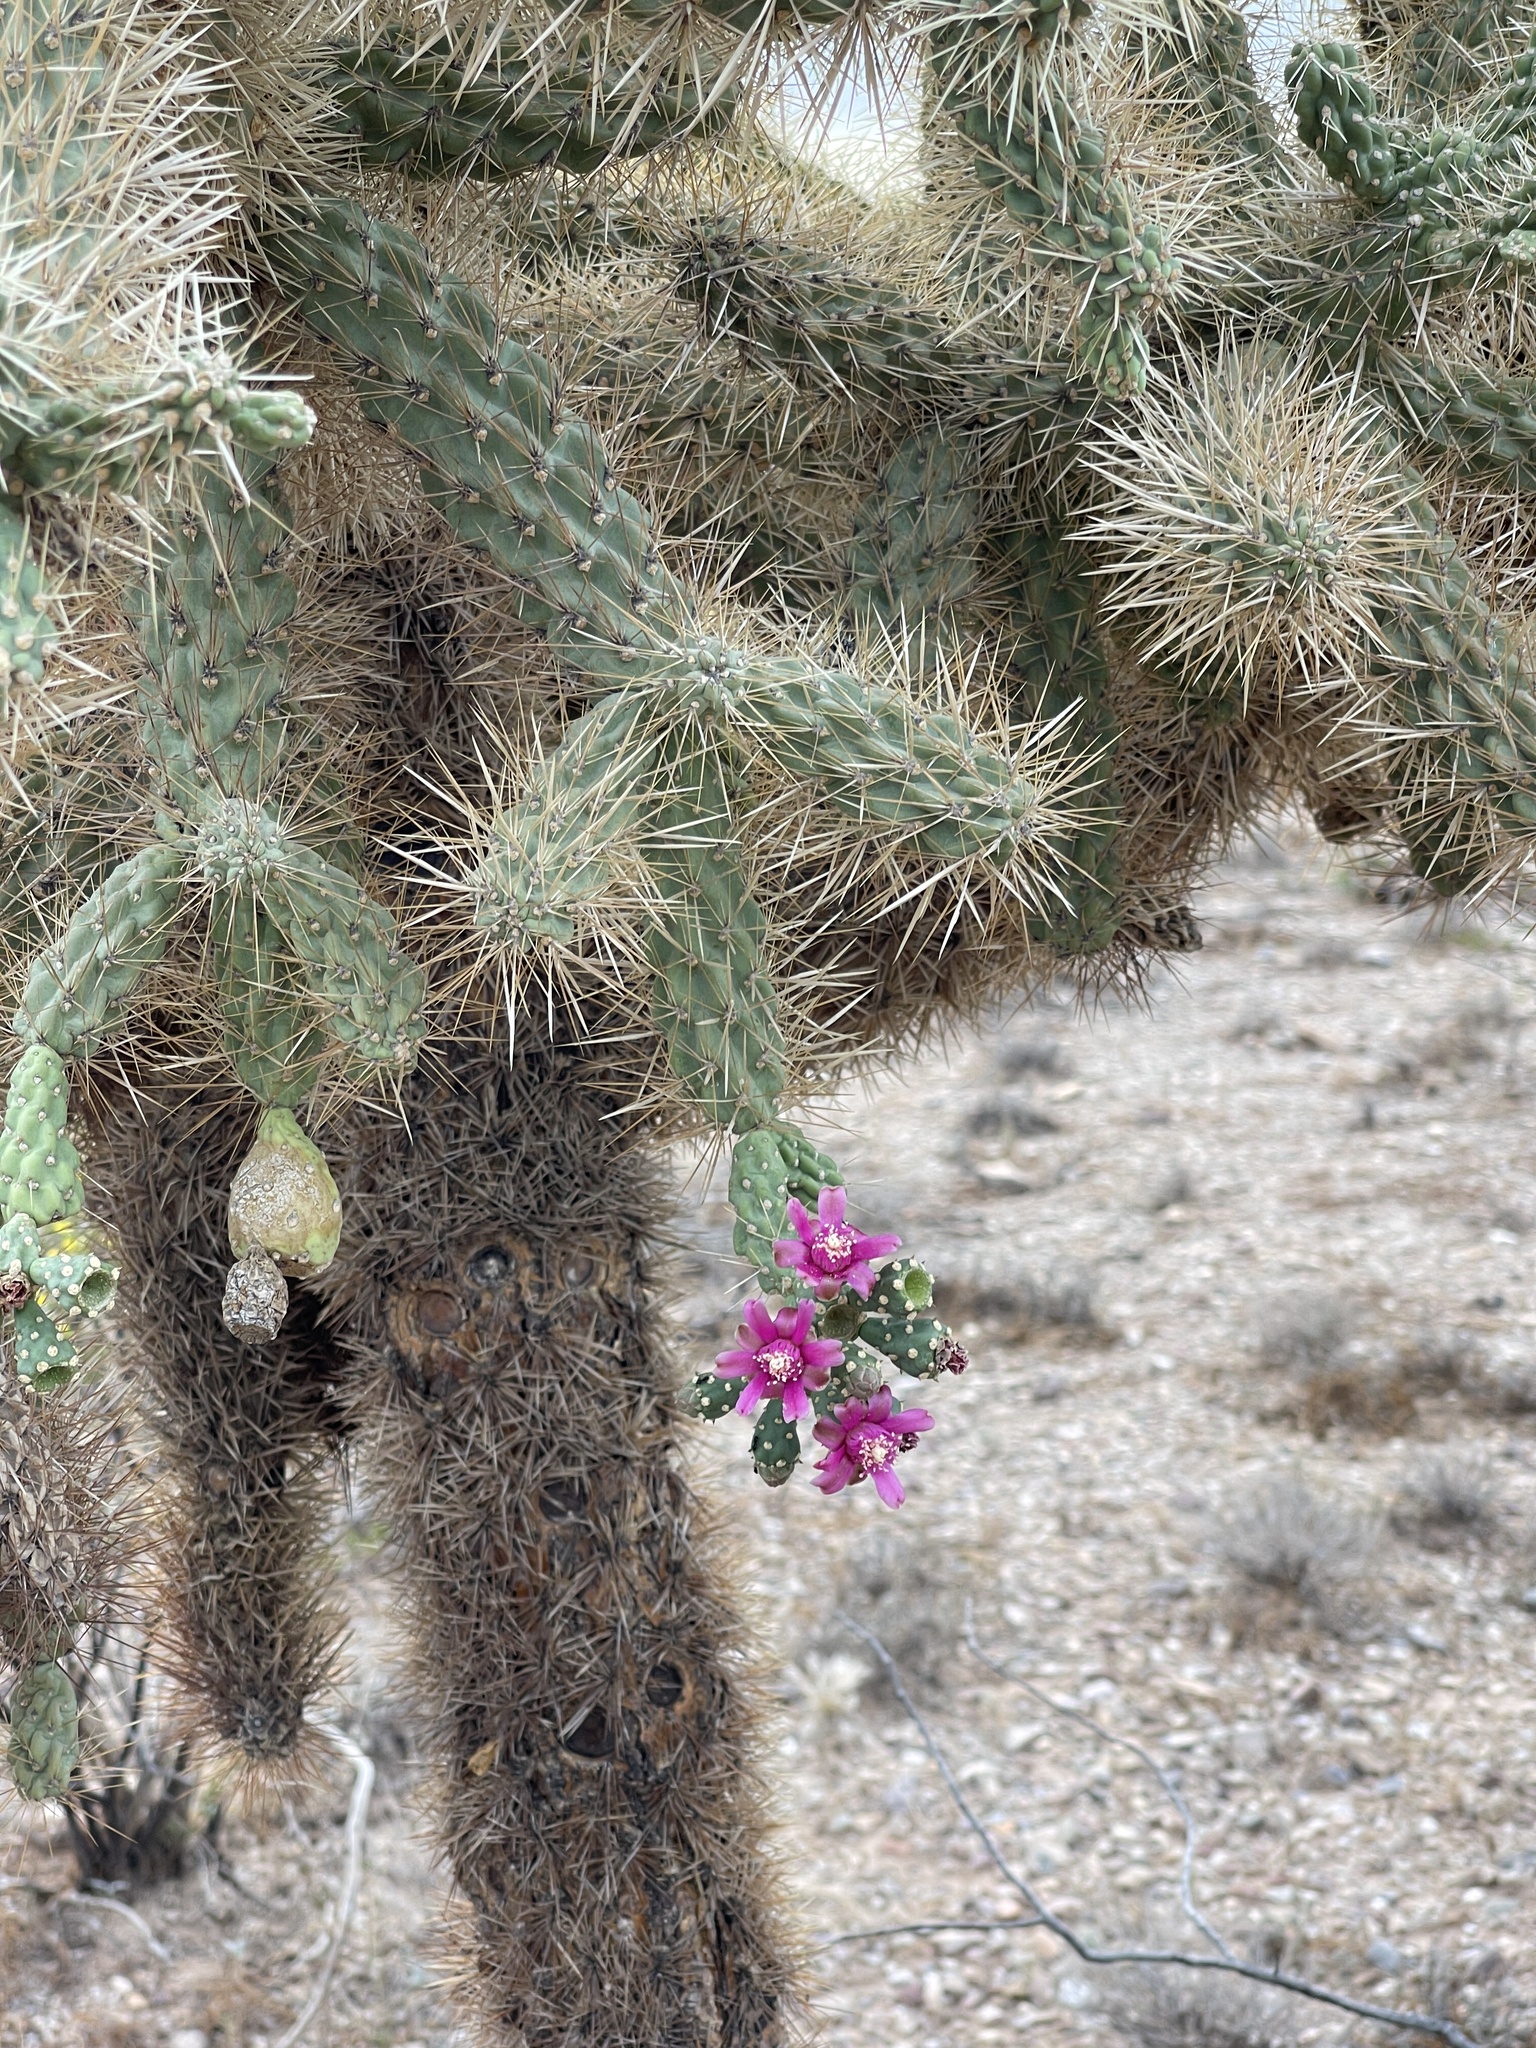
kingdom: Plantae
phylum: Tracheophyta
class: Magnoliopsida
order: Caryophyllales
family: Cactaceae
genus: Cylindropuntia
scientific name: Cylindropuntia fulgida
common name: Jumping cholla
